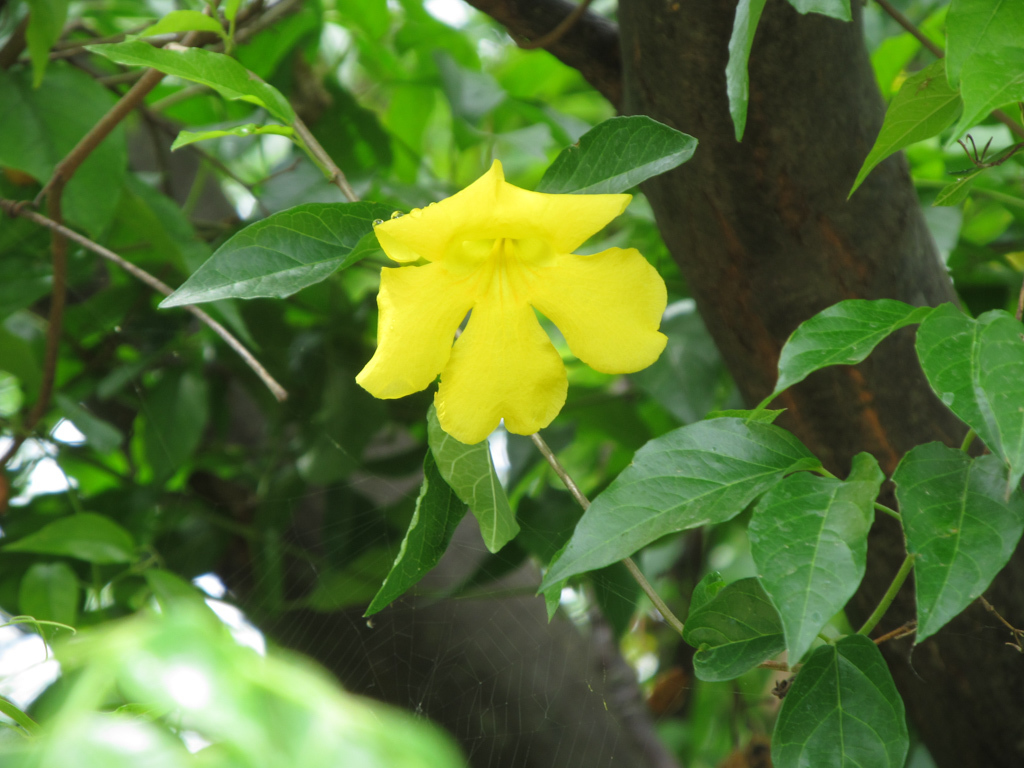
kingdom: Plantae
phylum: Tracheophyta
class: Magnoliopsida
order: Lamiales
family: Bignoniaceae
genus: Dolichandra
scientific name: Dolichandra unguis-cati
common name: Catclaw vine
